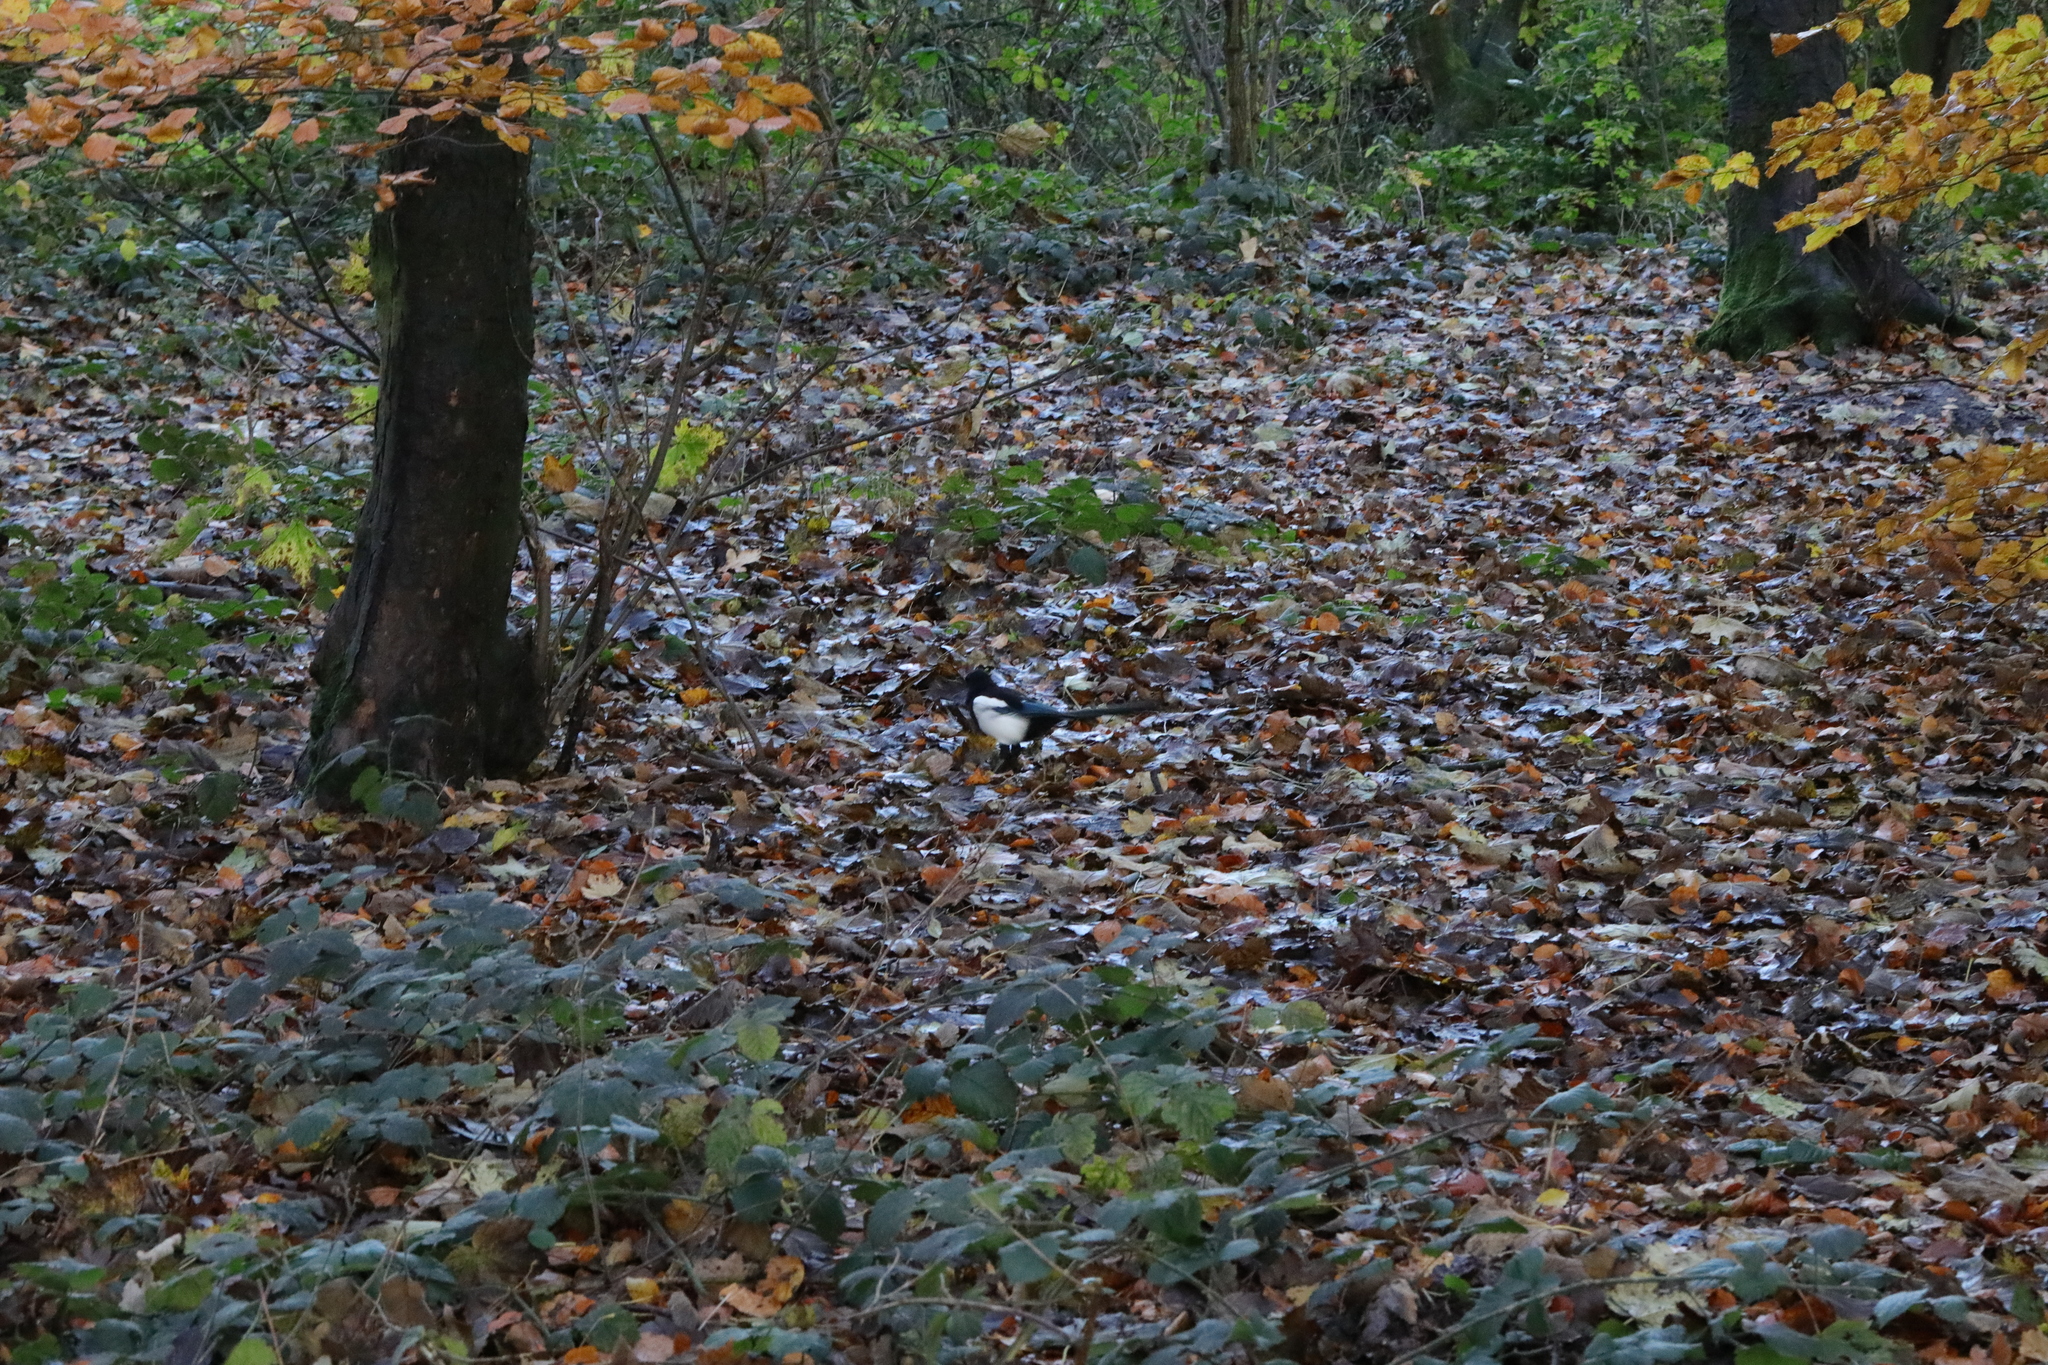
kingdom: Animalia
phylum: Chordata
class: Aves
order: Passeriformes
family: Corvidae
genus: Pica
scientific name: Pica pica
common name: Eurasian magpie
